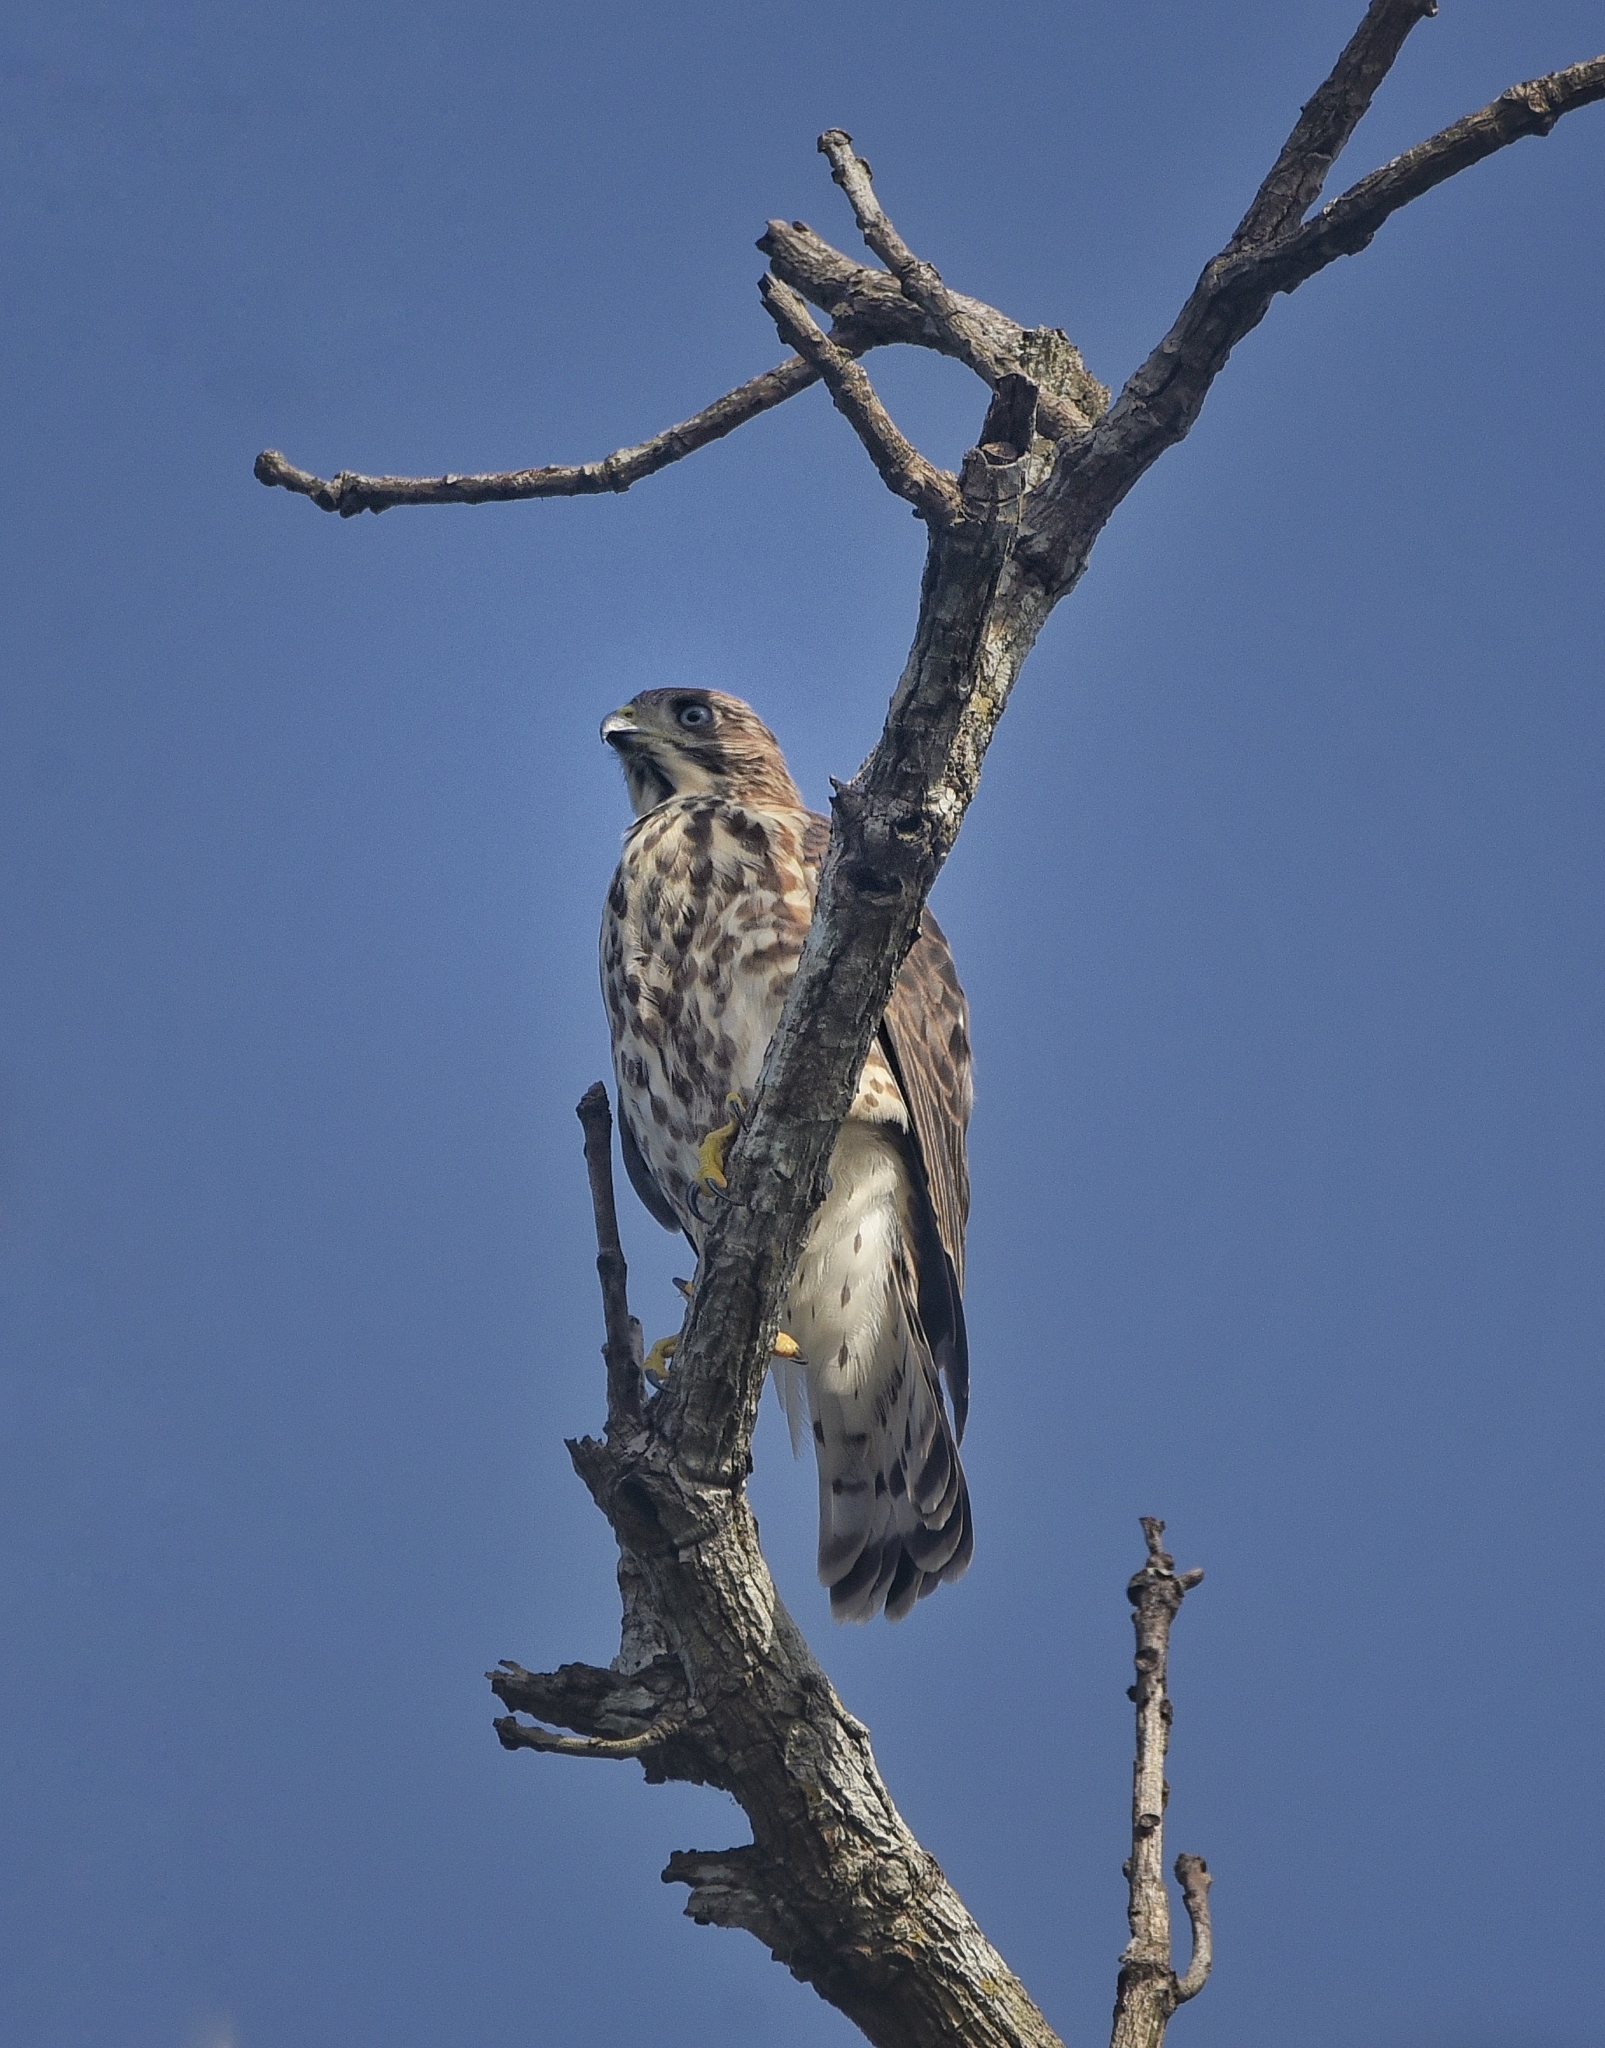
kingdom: Animalia
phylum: Chordata
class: Aves
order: Accipitriformes
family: Accipitridae
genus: Accipiter
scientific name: Accipiter badius
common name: Shikra
